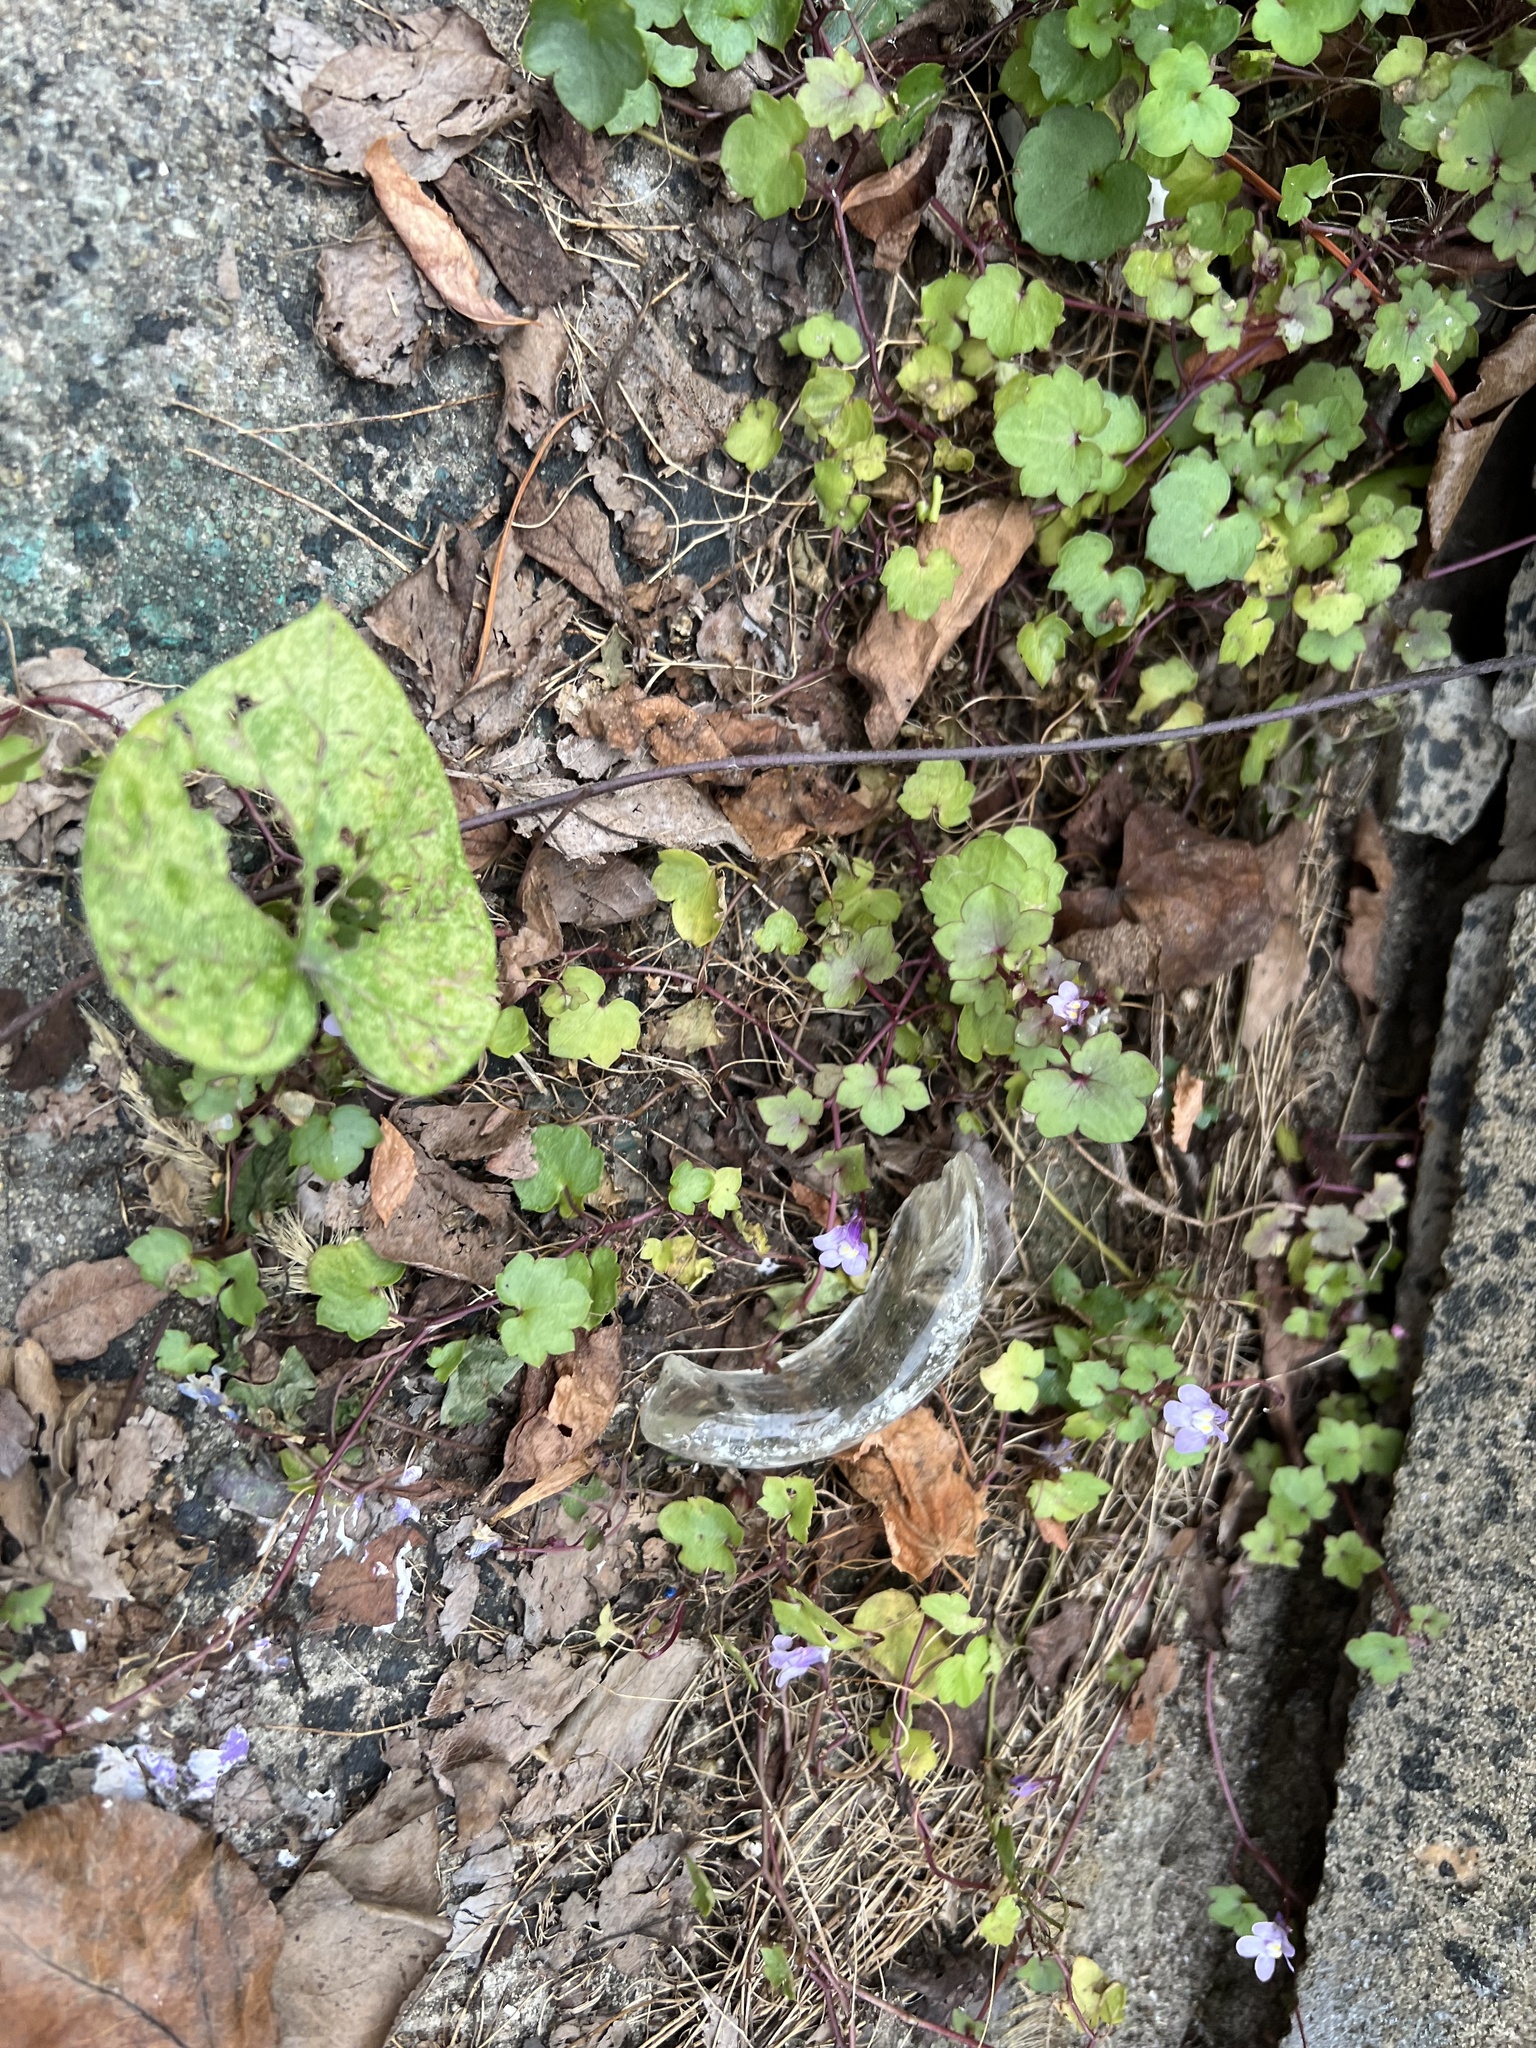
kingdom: Plantae
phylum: Tracheophyta
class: Magnoliopsida
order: Lamiales
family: Plantaginaceae
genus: Cymbalaria
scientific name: Cymbalaria muralis
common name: Ivy-leaved toadflax
